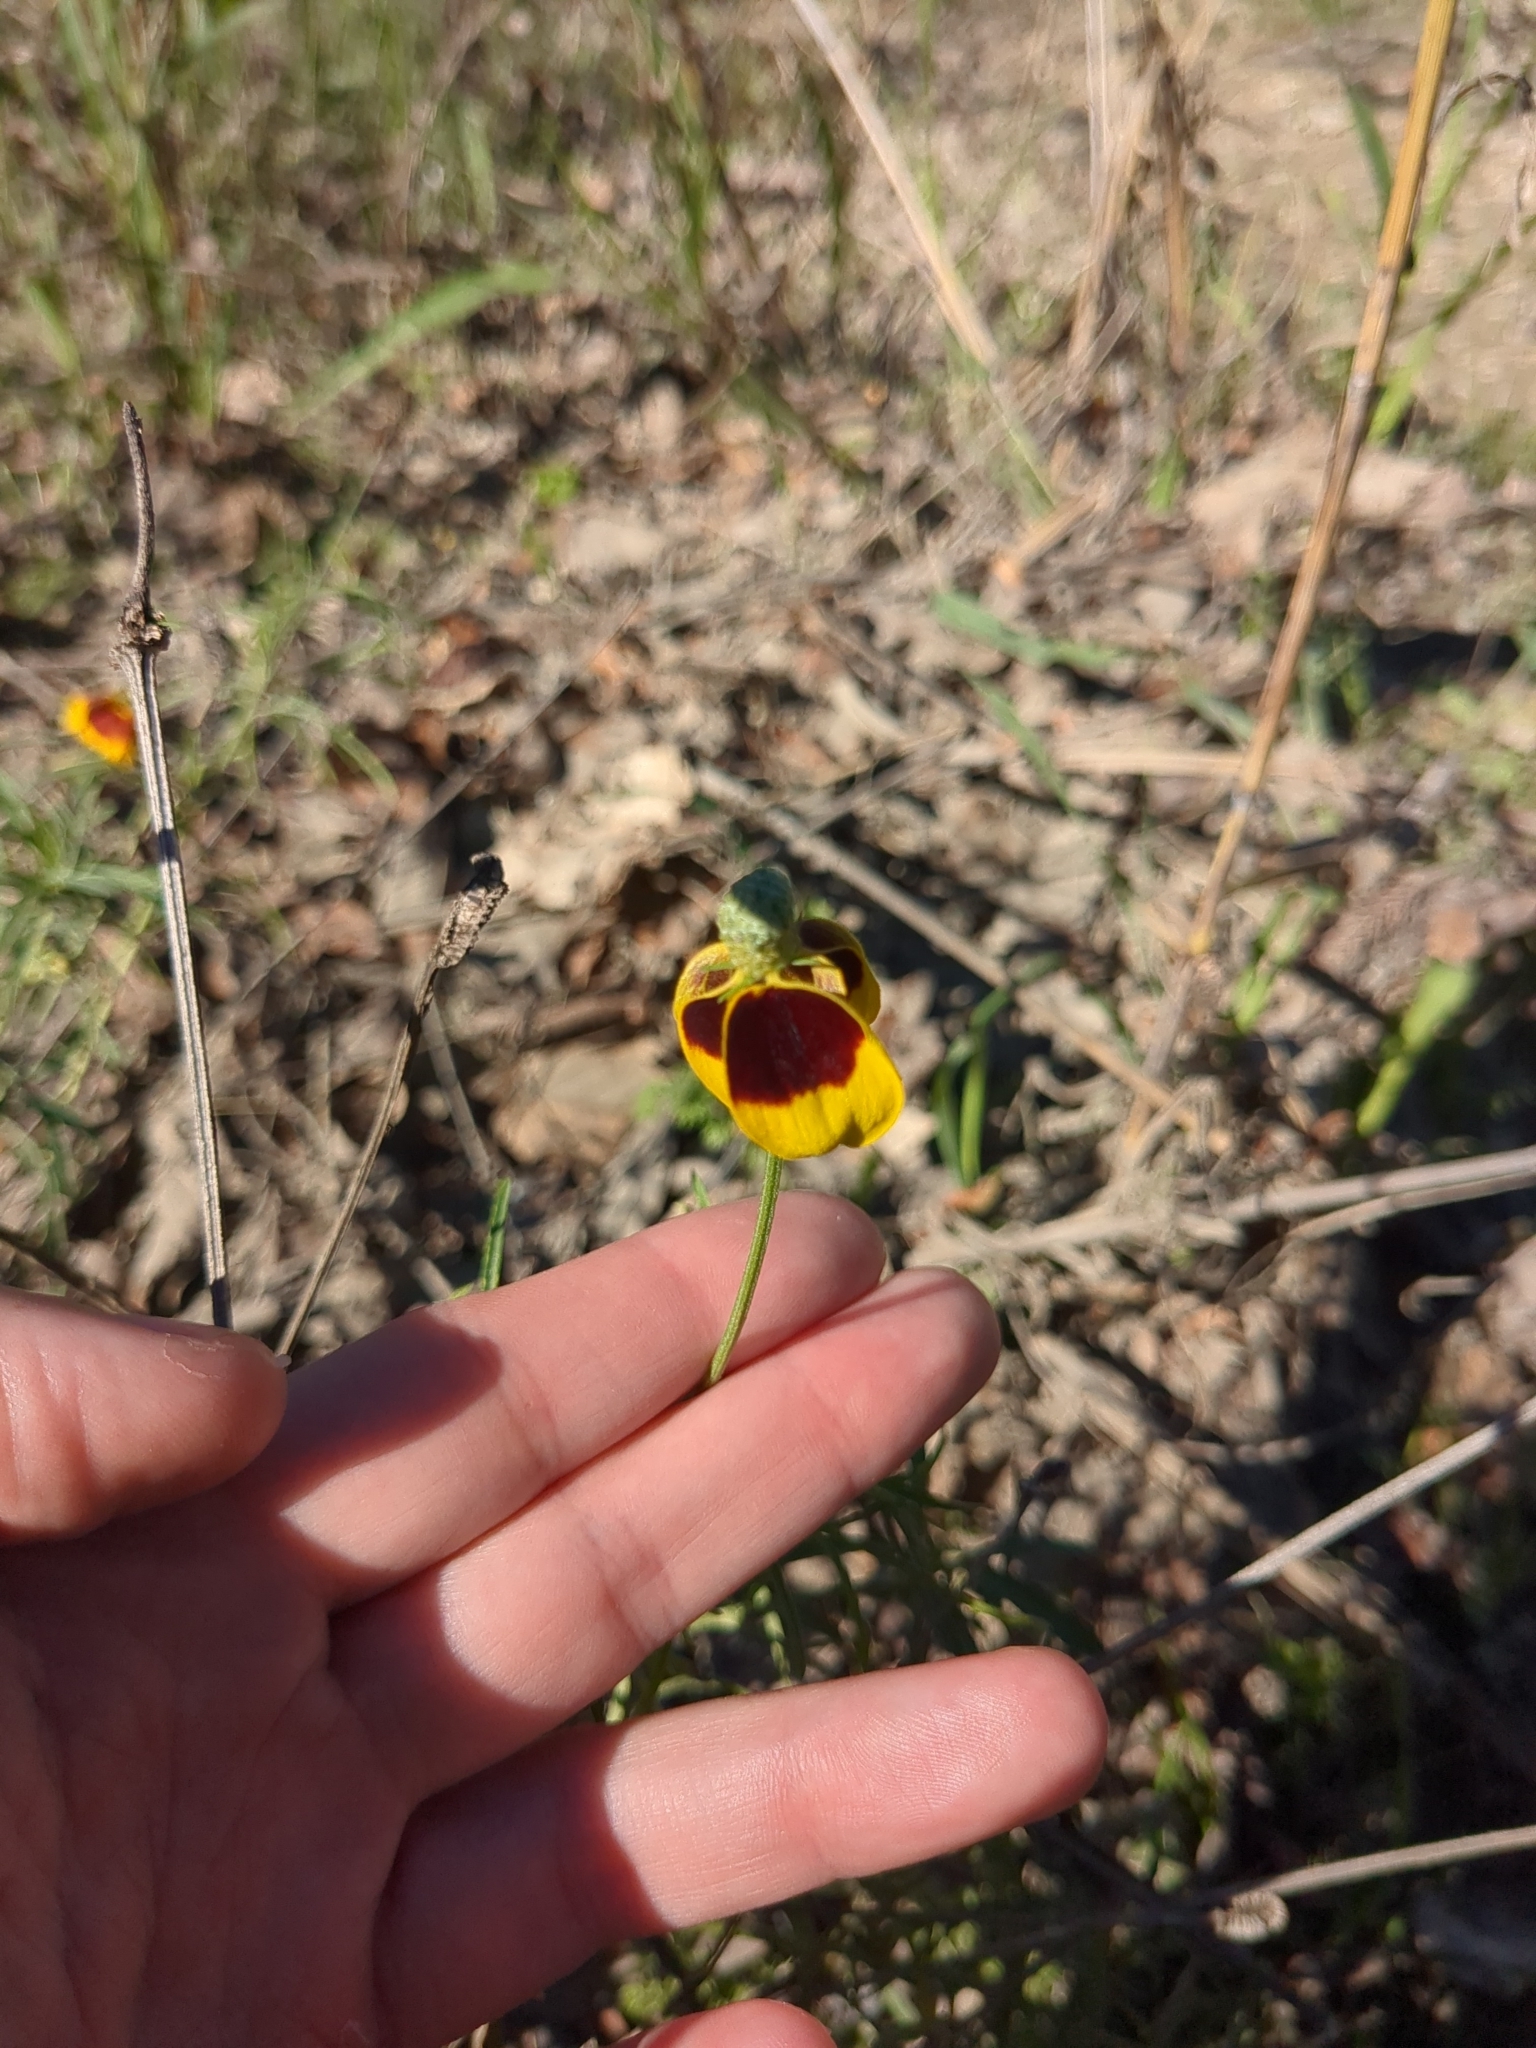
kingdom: Plantae
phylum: Tracheophyta
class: Magnoliopsida
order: Asterales
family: Asteraceae
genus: Ratibida
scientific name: Ratibida columnifera
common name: Prairie coneflower
